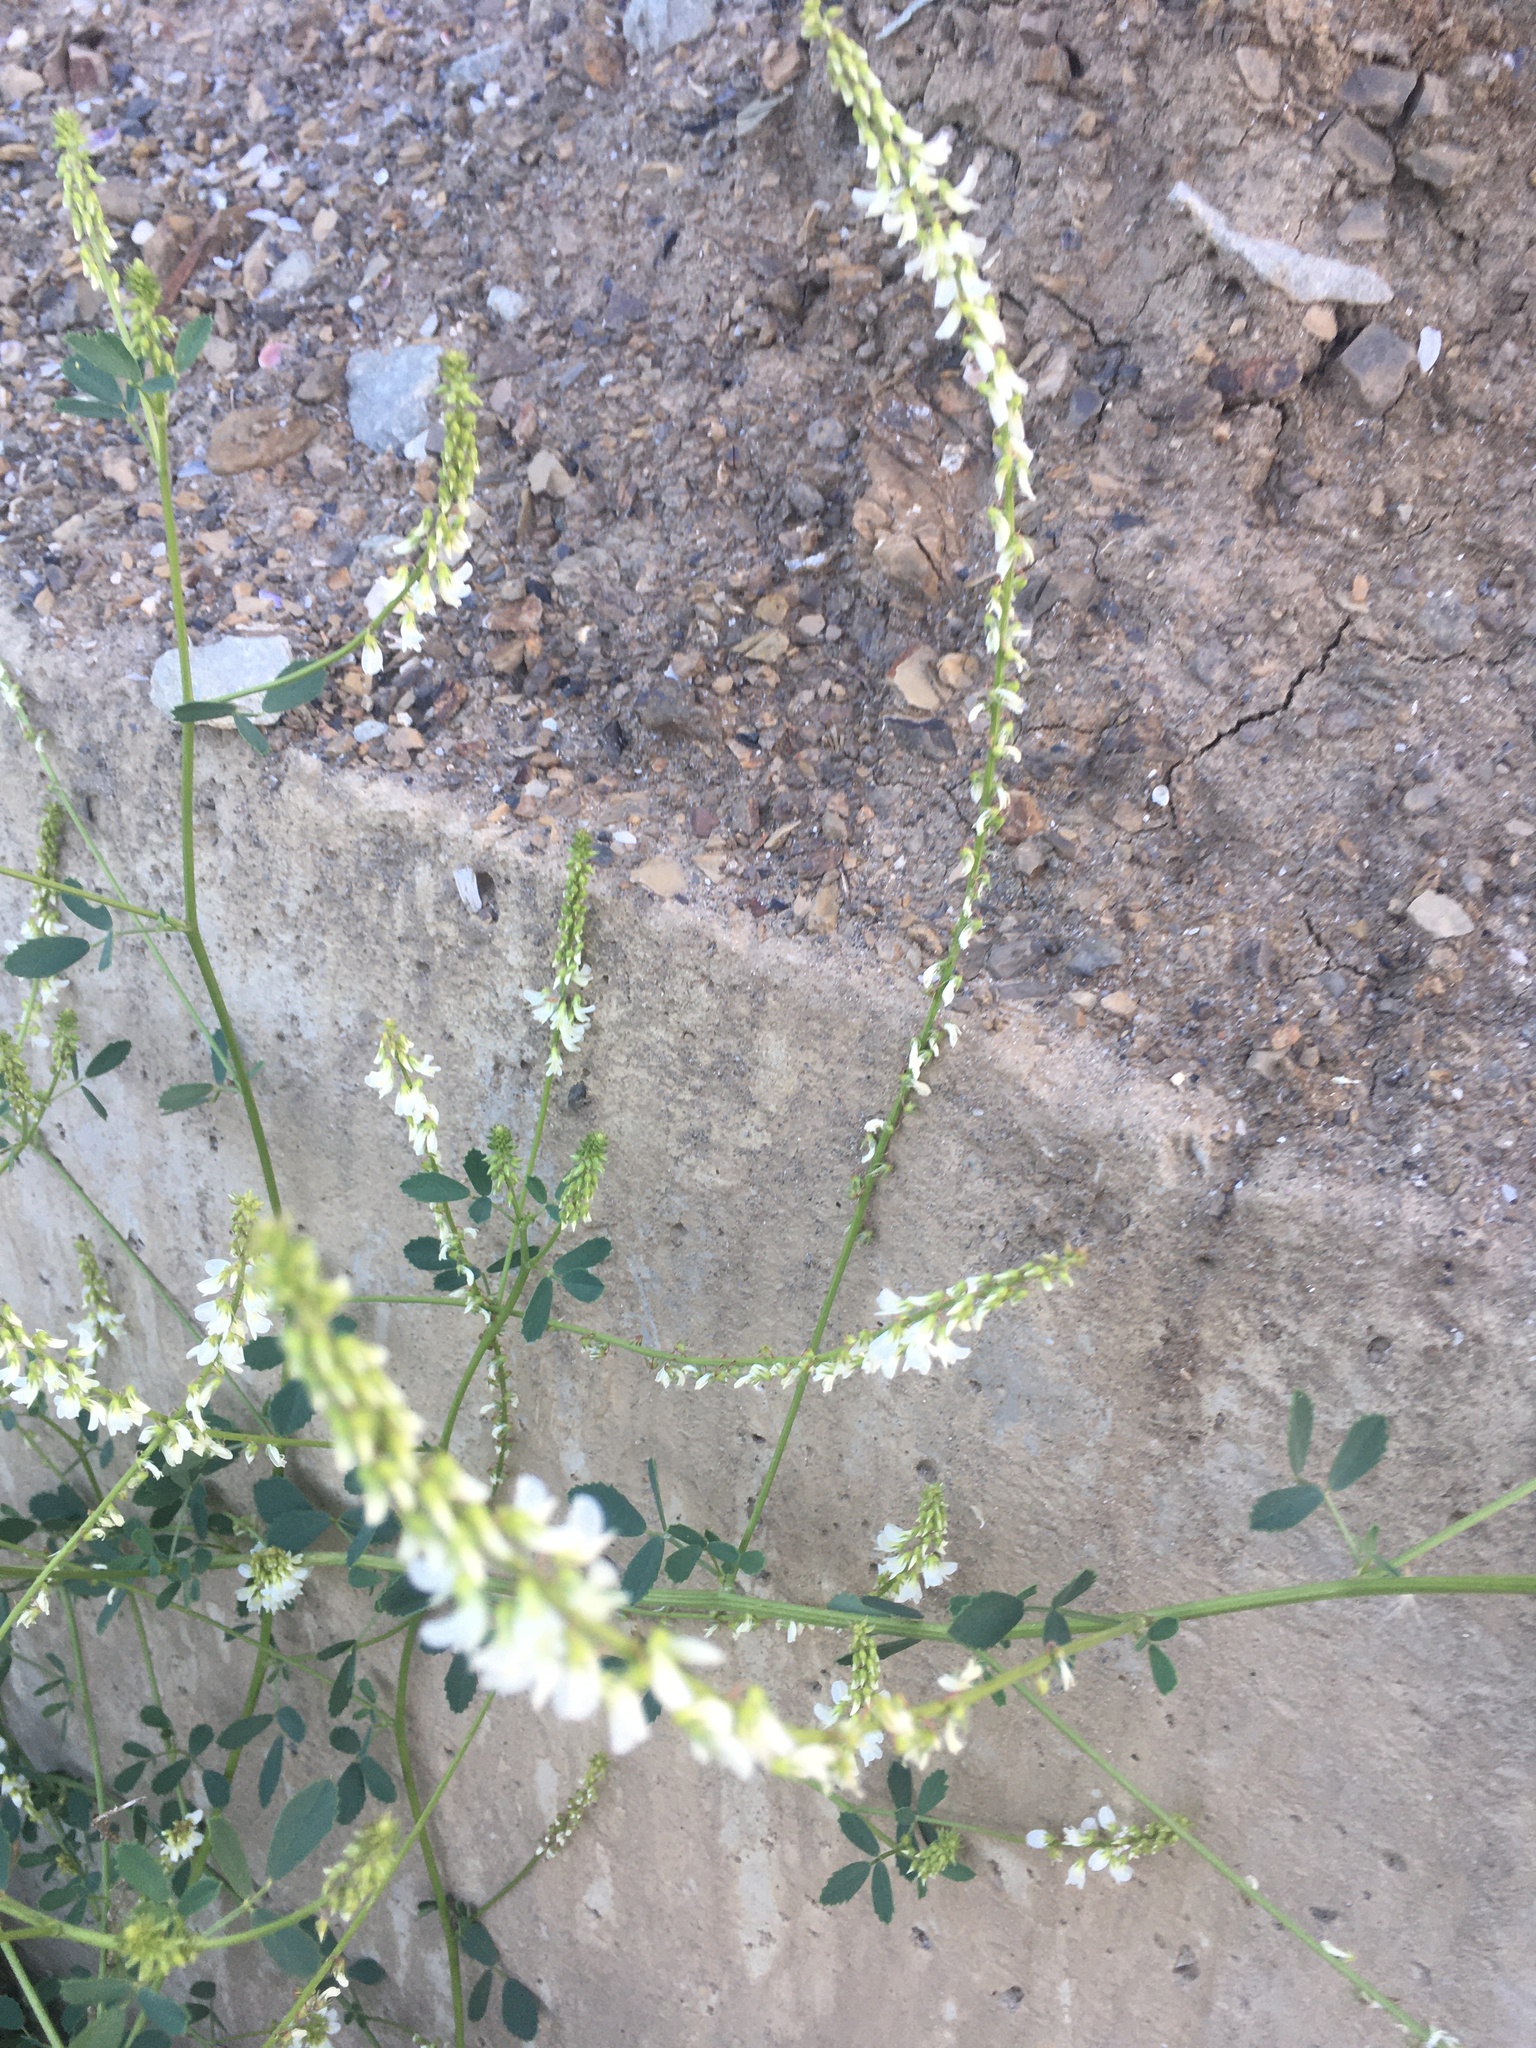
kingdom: Plantae
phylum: Tracheophyta
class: Magnoliopsida
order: Fabales
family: Fabaceae
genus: Melilotus
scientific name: Melilotus albus
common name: White melilot
